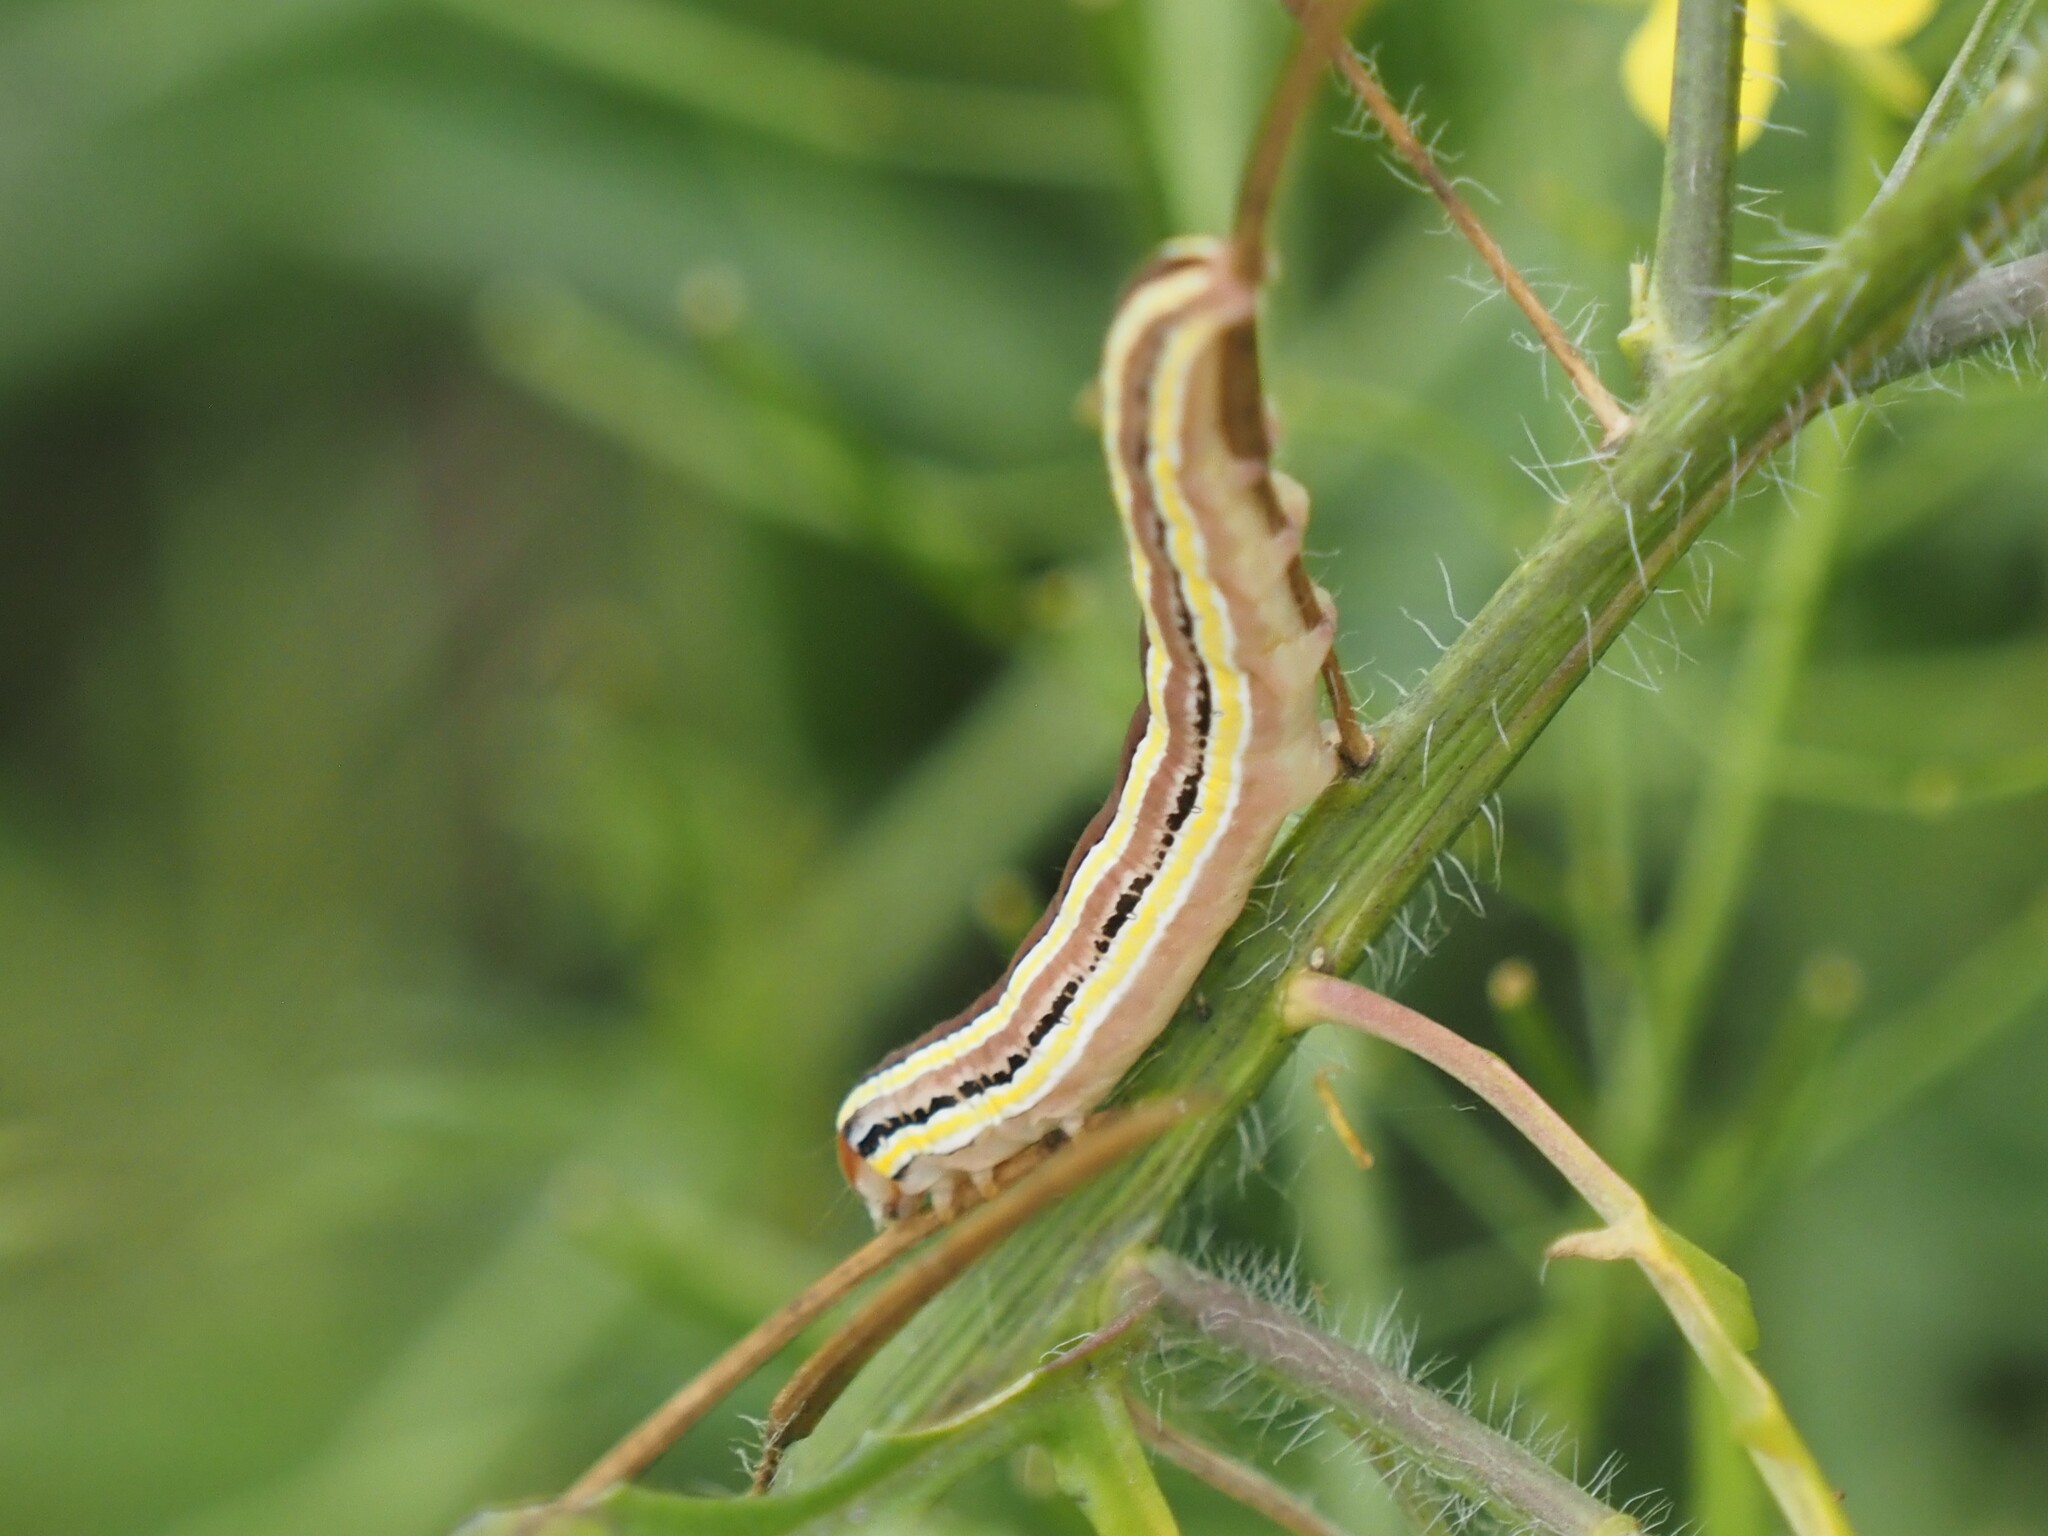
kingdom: Animalia
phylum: Arthropoda
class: Insecta
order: Lepidoptera
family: Noctuidae
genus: Trichordestra
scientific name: Trichordestra legitima
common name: Striped garden caterpillar
